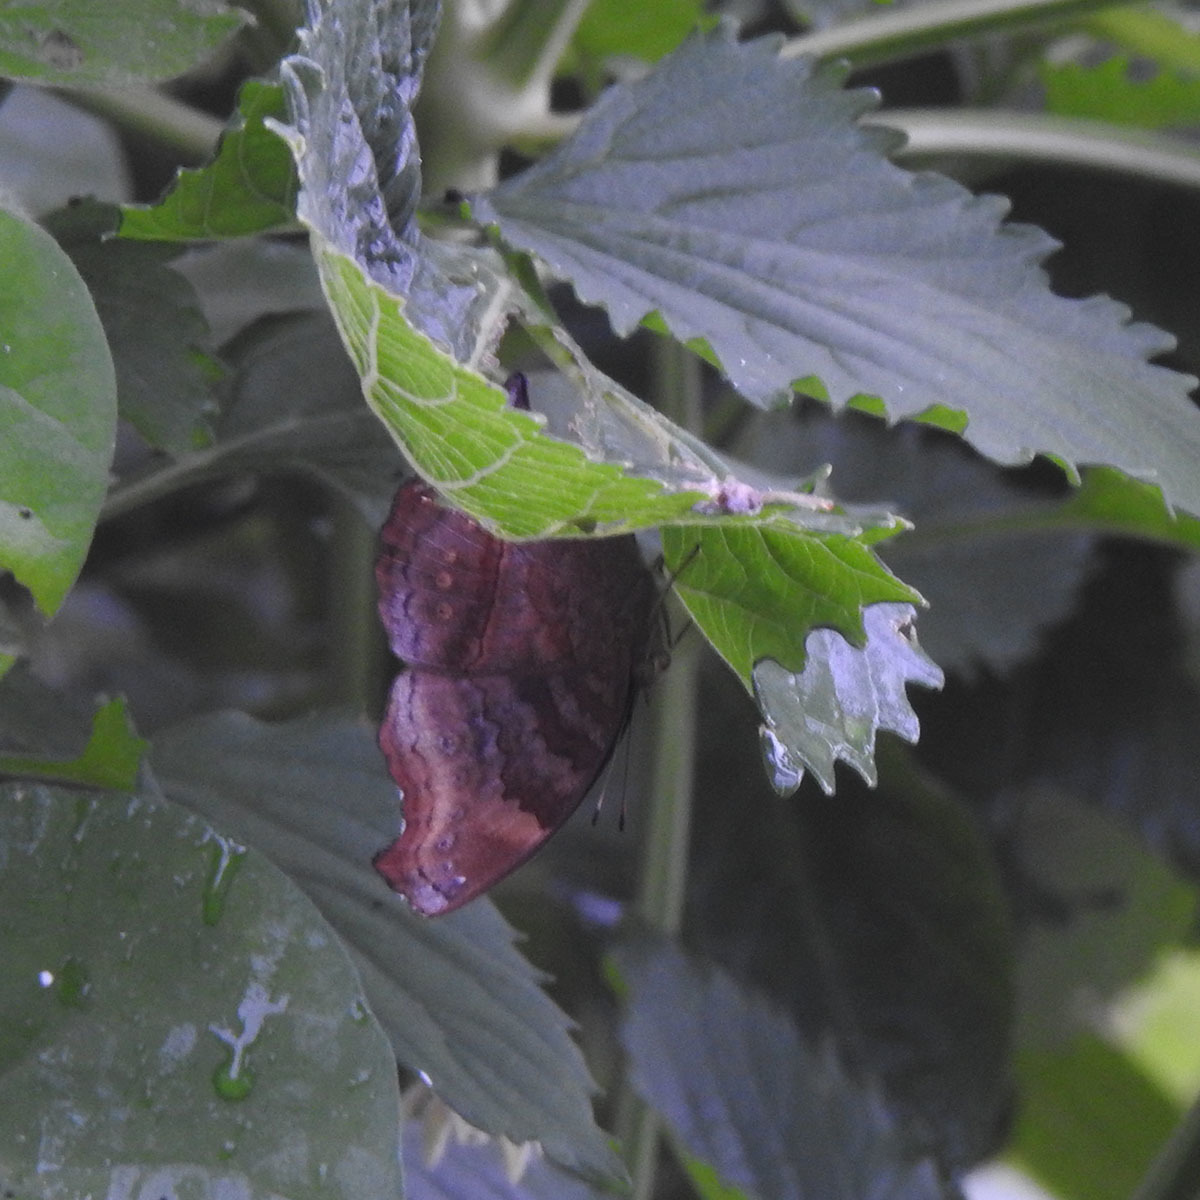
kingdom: Animalia
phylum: Arthropoda
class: Insecta
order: Lepidoptera
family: Nymphalidae
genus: Ariadne
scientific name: Ariadne merione
